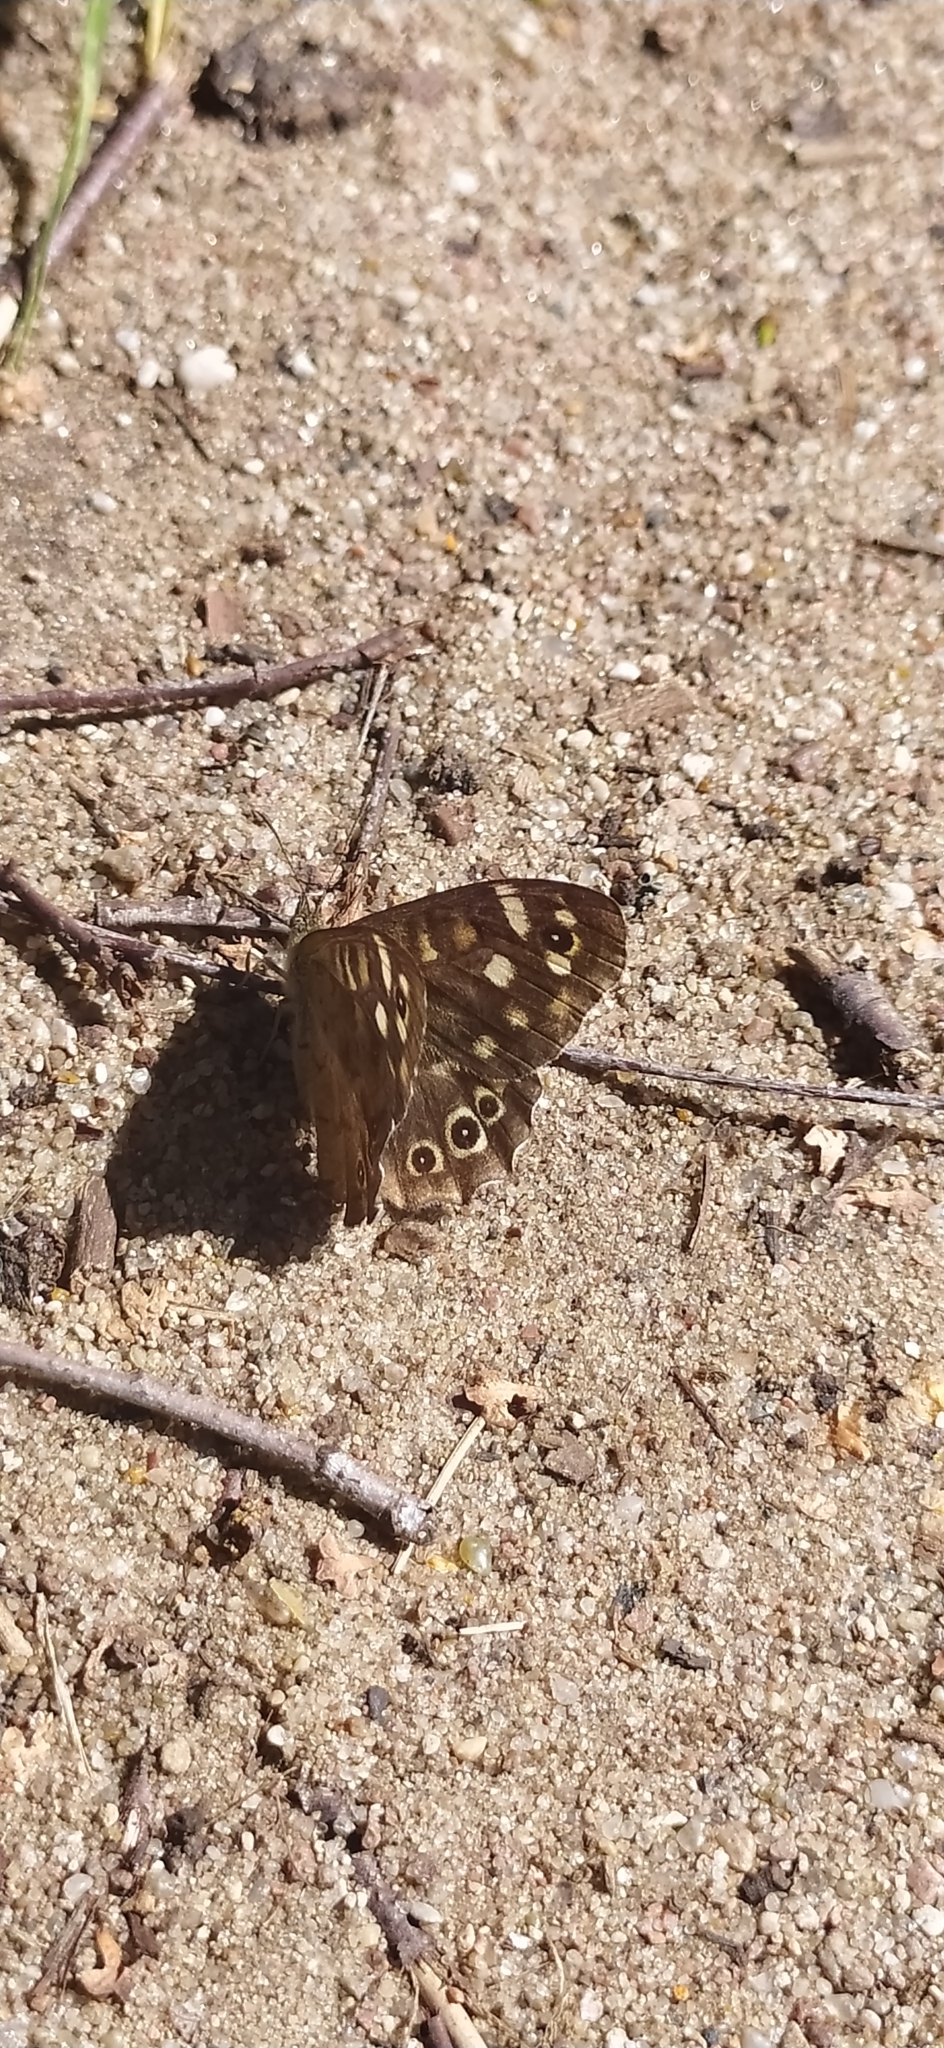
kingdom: Animalia
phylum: Arthropoda
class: Insecta
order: Lepidoptera
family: Nymphalidae
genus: Pararge
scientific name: Pararge aegeria
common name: Speckled wood
